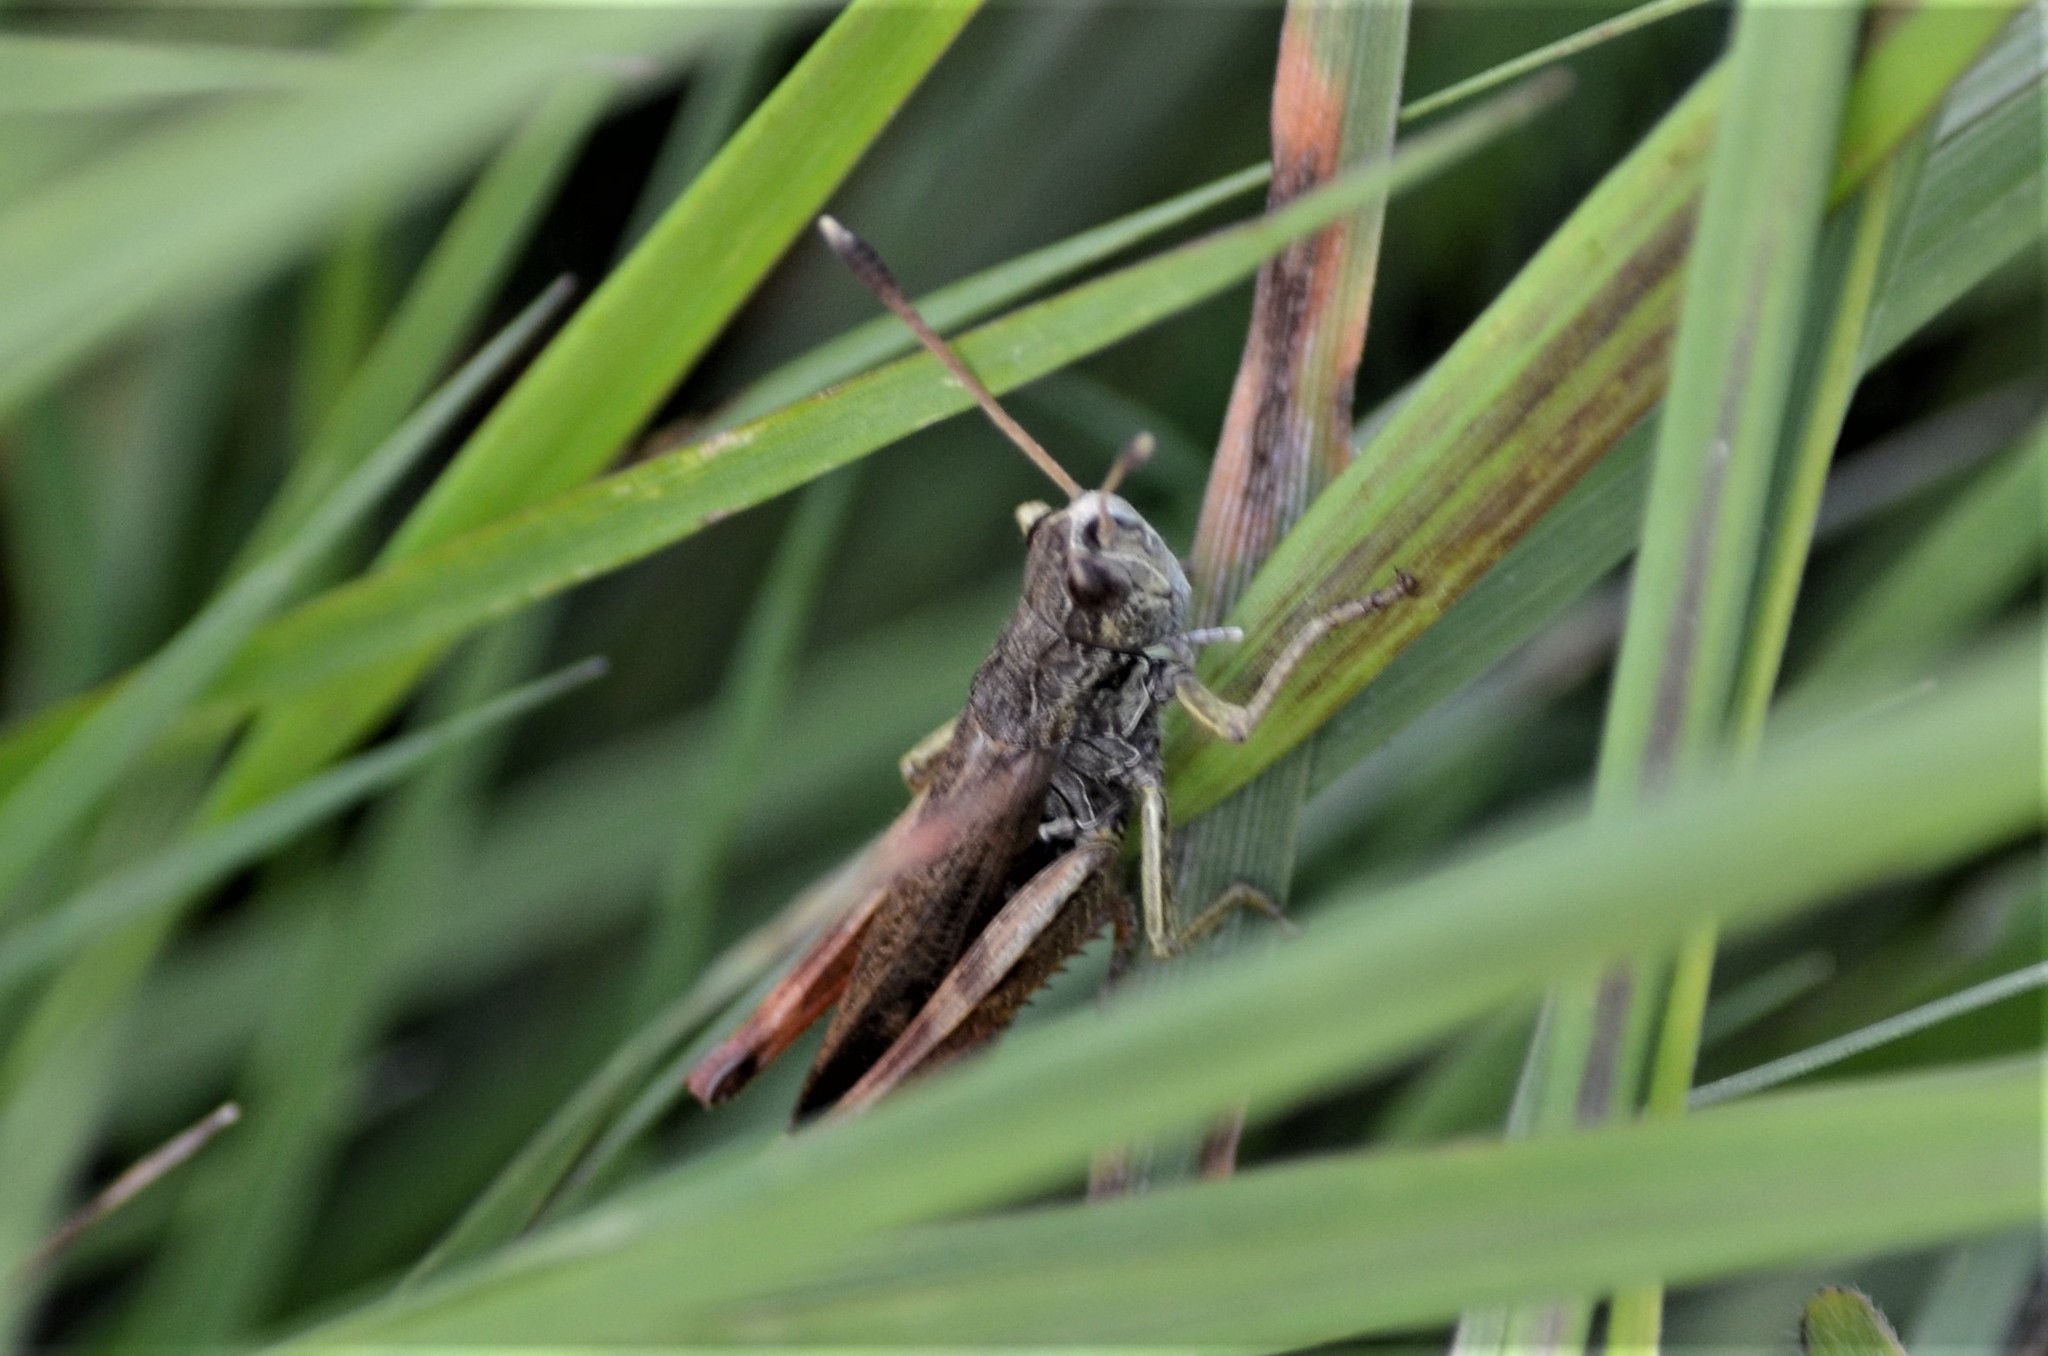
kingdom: Animalia
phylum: Arthropoda
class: Insecta
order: Orthoptera
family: Acrididae
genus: Gomphocerippus
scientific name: Gomphocerippus rufus
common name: Rufous grasshopper
